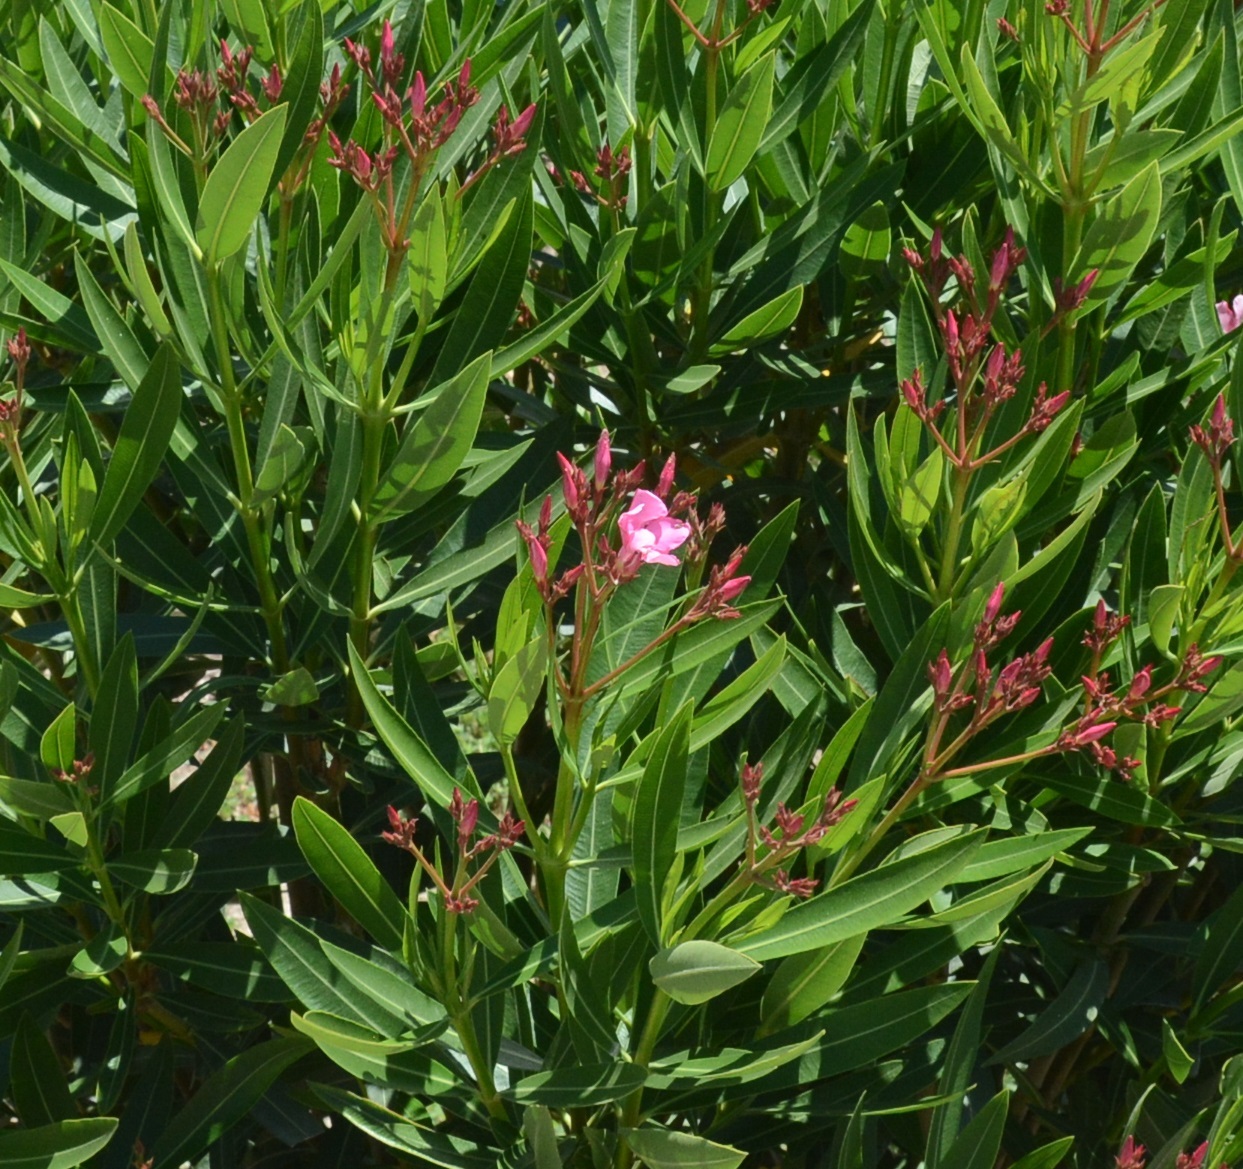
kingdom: Plantae
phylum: Tracheophyta
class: Magnoliopsida
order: Gentianales
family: Apocynaceae
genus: Nerium
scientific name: Nerium oleander
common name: Oleander
